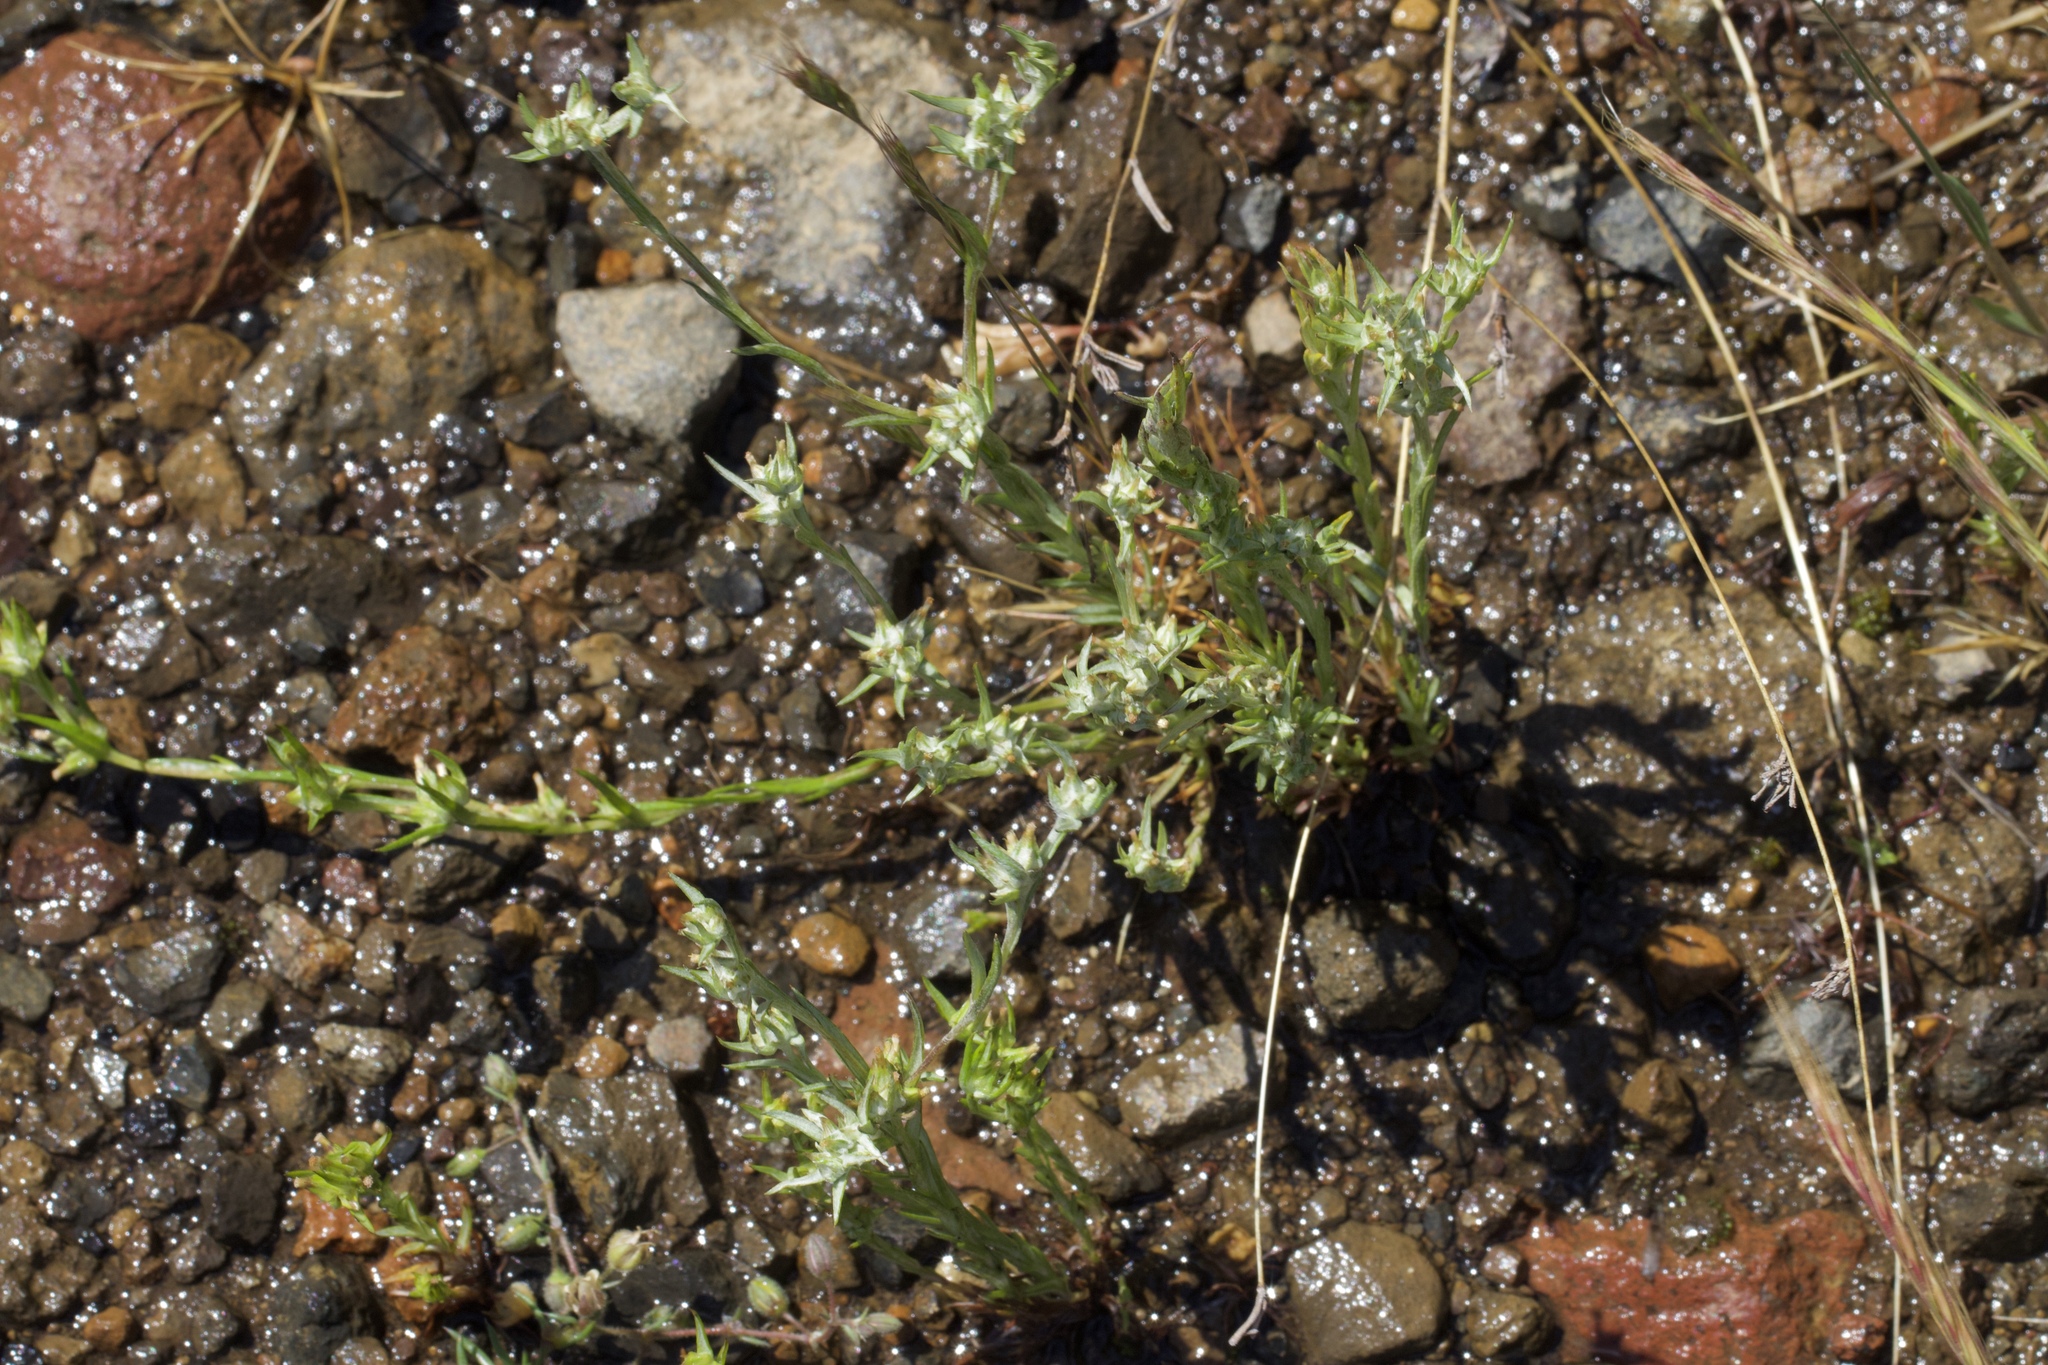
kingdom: Plantae
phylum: Tracheophyta
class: Magnoliopsida
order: Asterales
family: Asteraceae
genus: Logfia
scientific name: Logfia gallica
